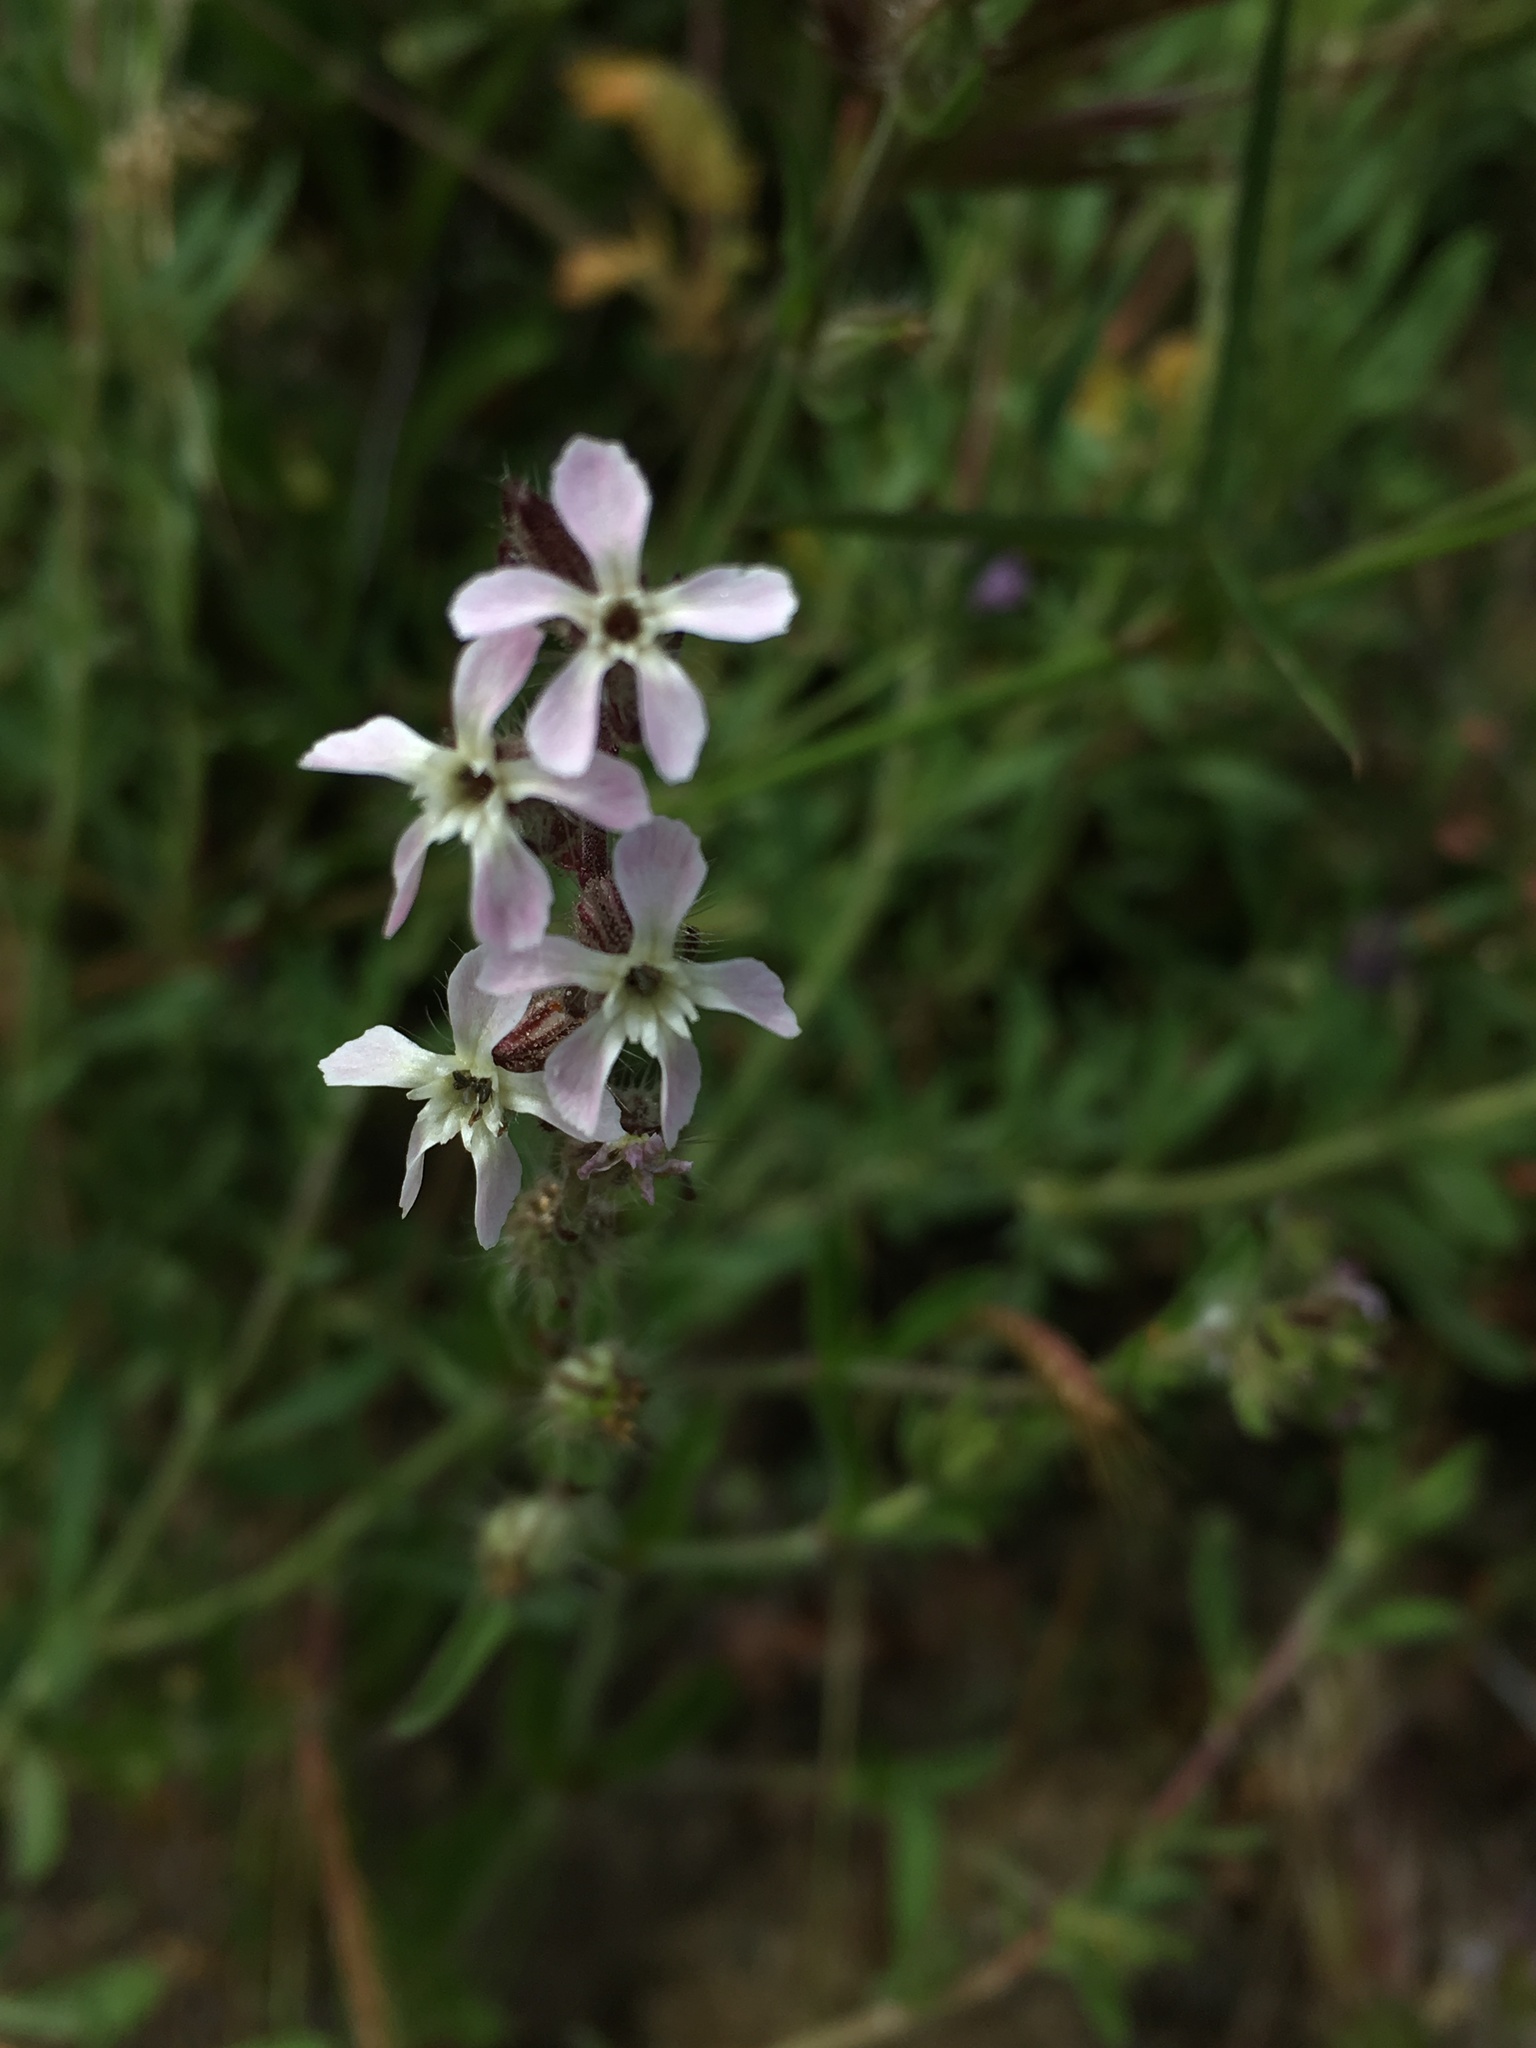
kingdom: Plantae
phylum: Tracheophyta
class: Magnoliopsida
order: Caryophyllales
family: Caryophyllaceae
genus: Silene
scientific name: Silene gallica
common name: Small-flowered catchfly
